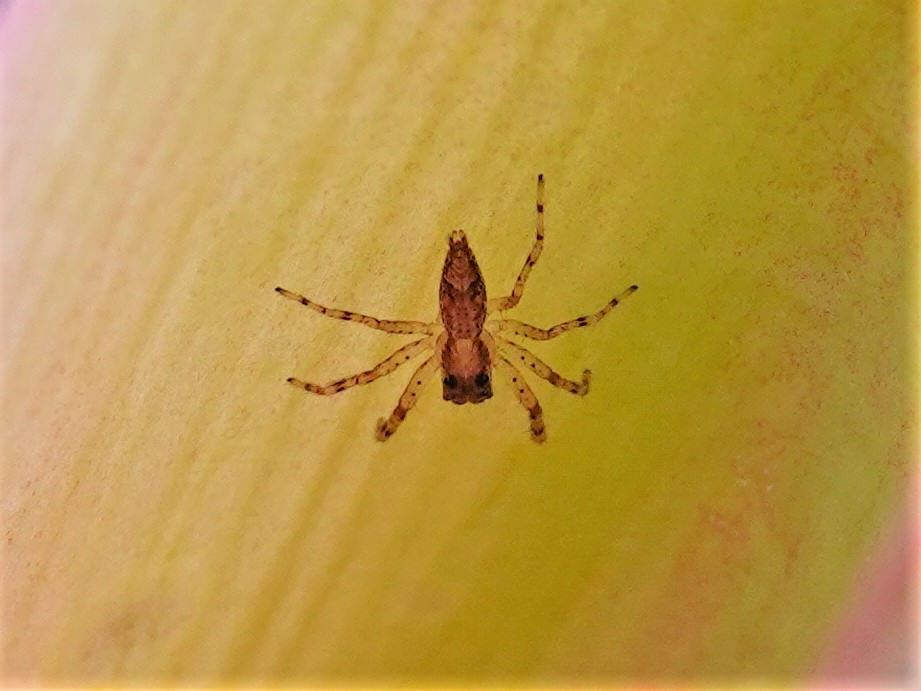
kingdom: Animalia
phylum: Arthropoda
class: Arachnida
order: Araneae
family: Salticidae
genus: Helpis
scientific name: Helpis minitabunda
